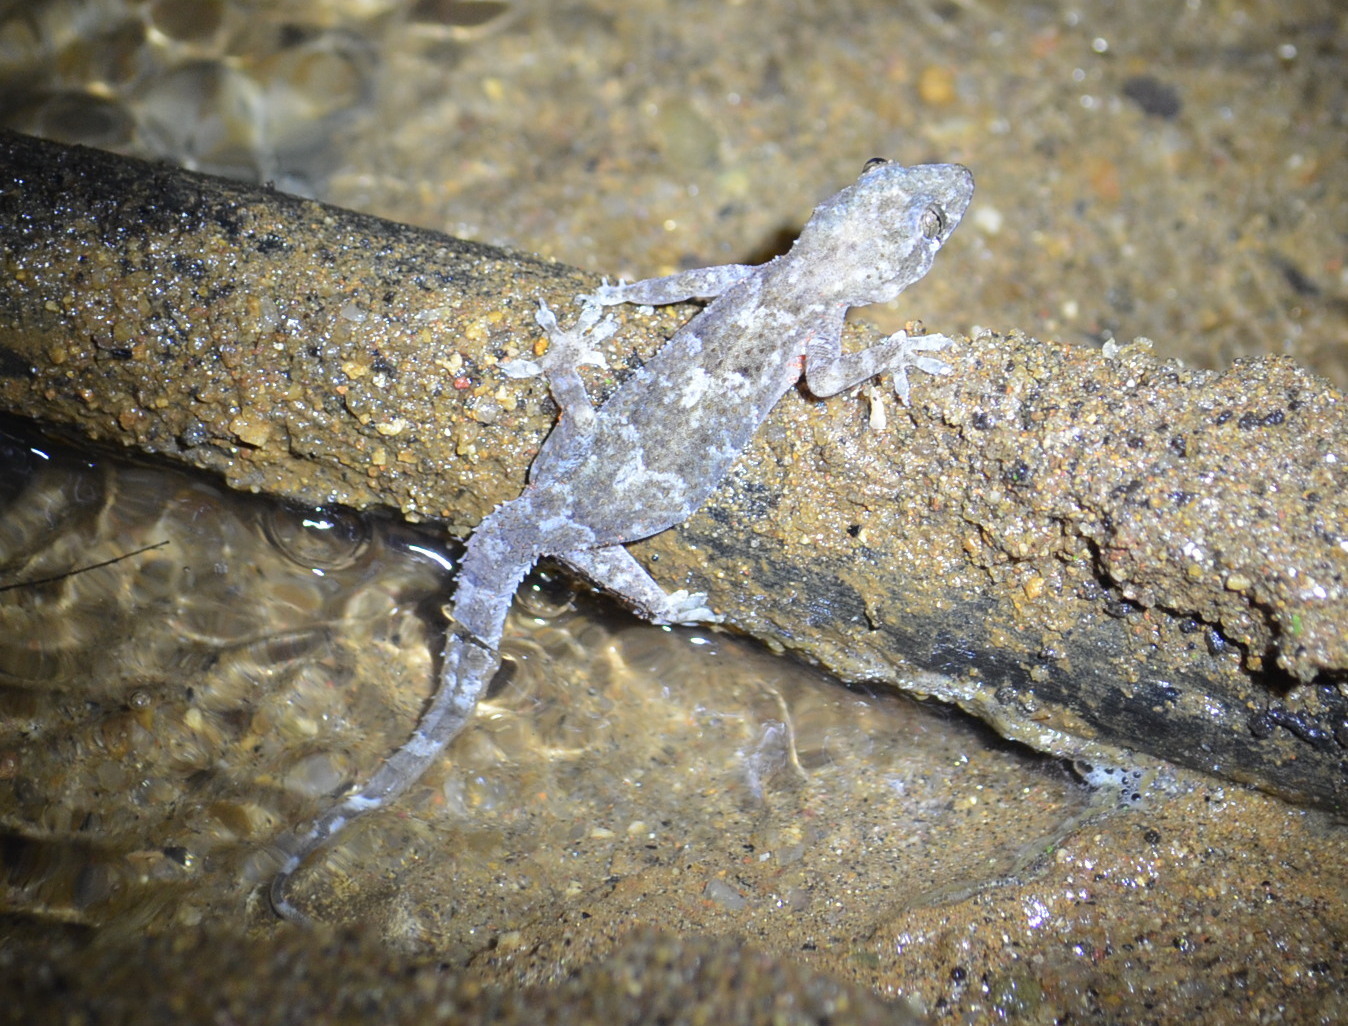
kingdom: Animalia
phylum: Chordata
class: Squamata
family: Gekkonidae
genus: Hemidactylus
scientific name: Hemidactylus mabouia
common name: House gecko
